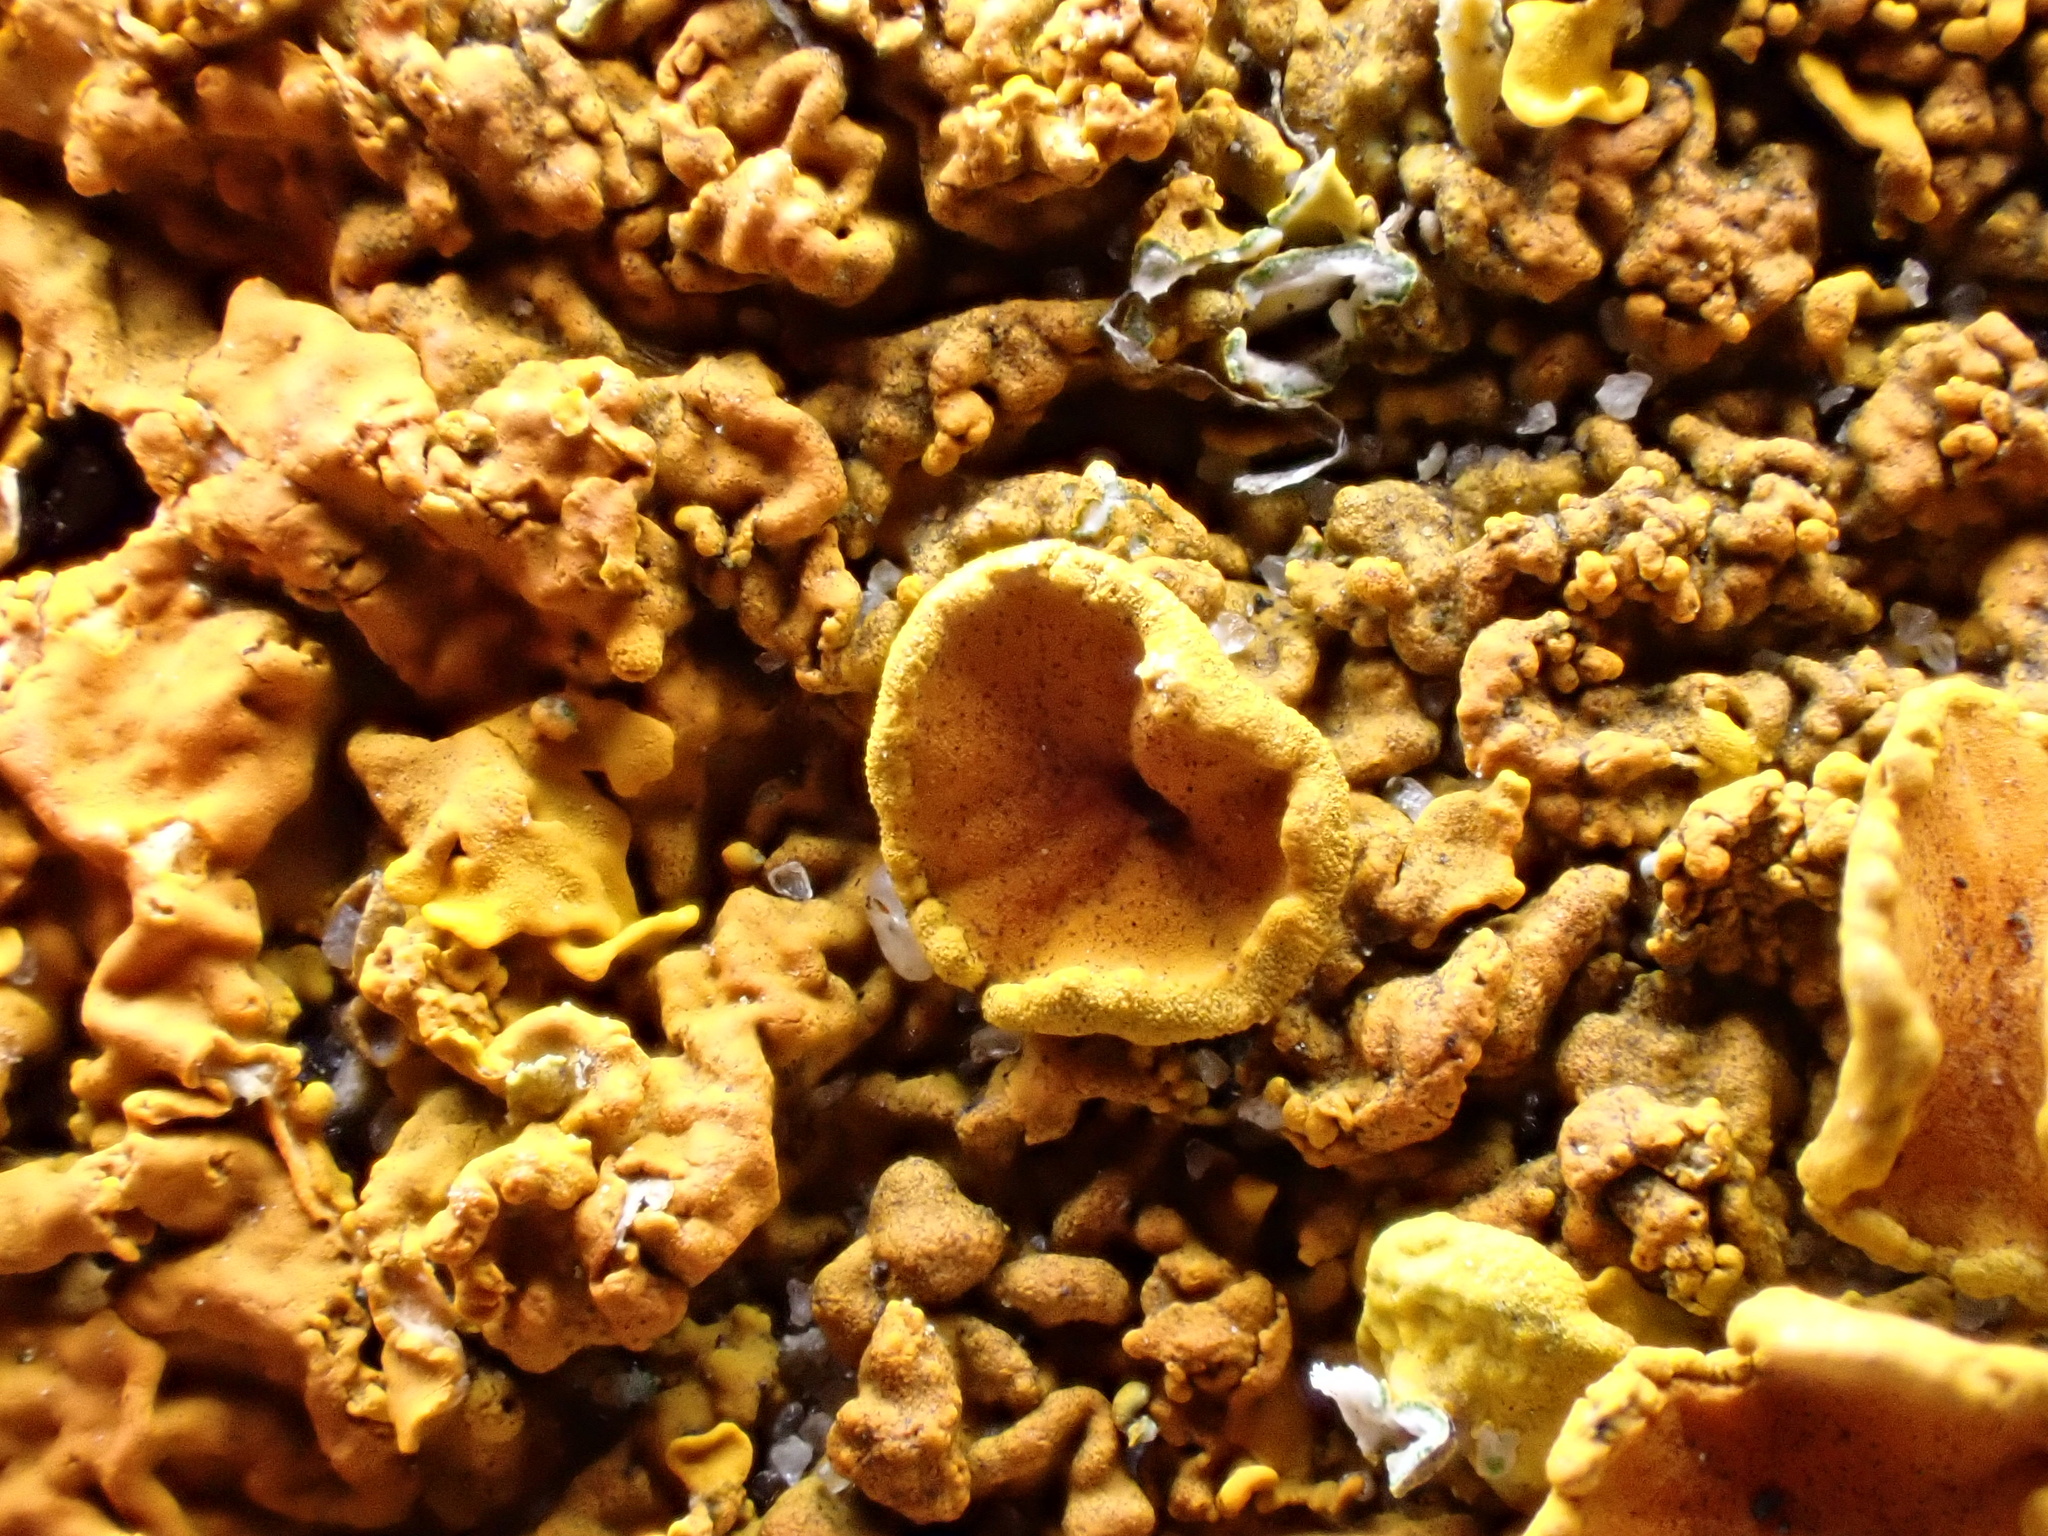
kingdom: Fungi
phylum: Ascomycota
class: Lecanoromycetes
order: Teloschistales
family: Teloschistaceae
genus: Xanthoria
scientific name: Xanthoria calcicola
